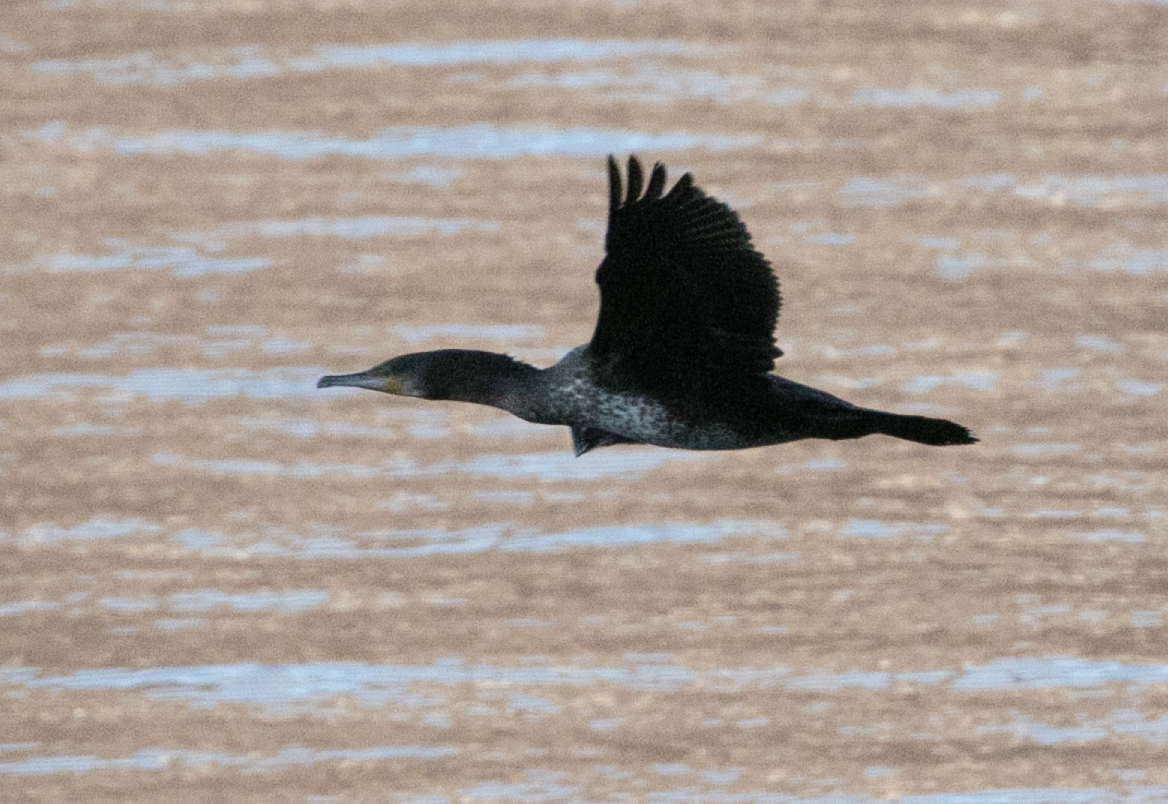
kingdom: Animalia
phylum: Chordata
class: Aves
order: Suliformes
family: Phalacrocoracidae
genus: Phalacrocorax
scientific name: Phalacrocorax carbo
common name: Great cormorant
